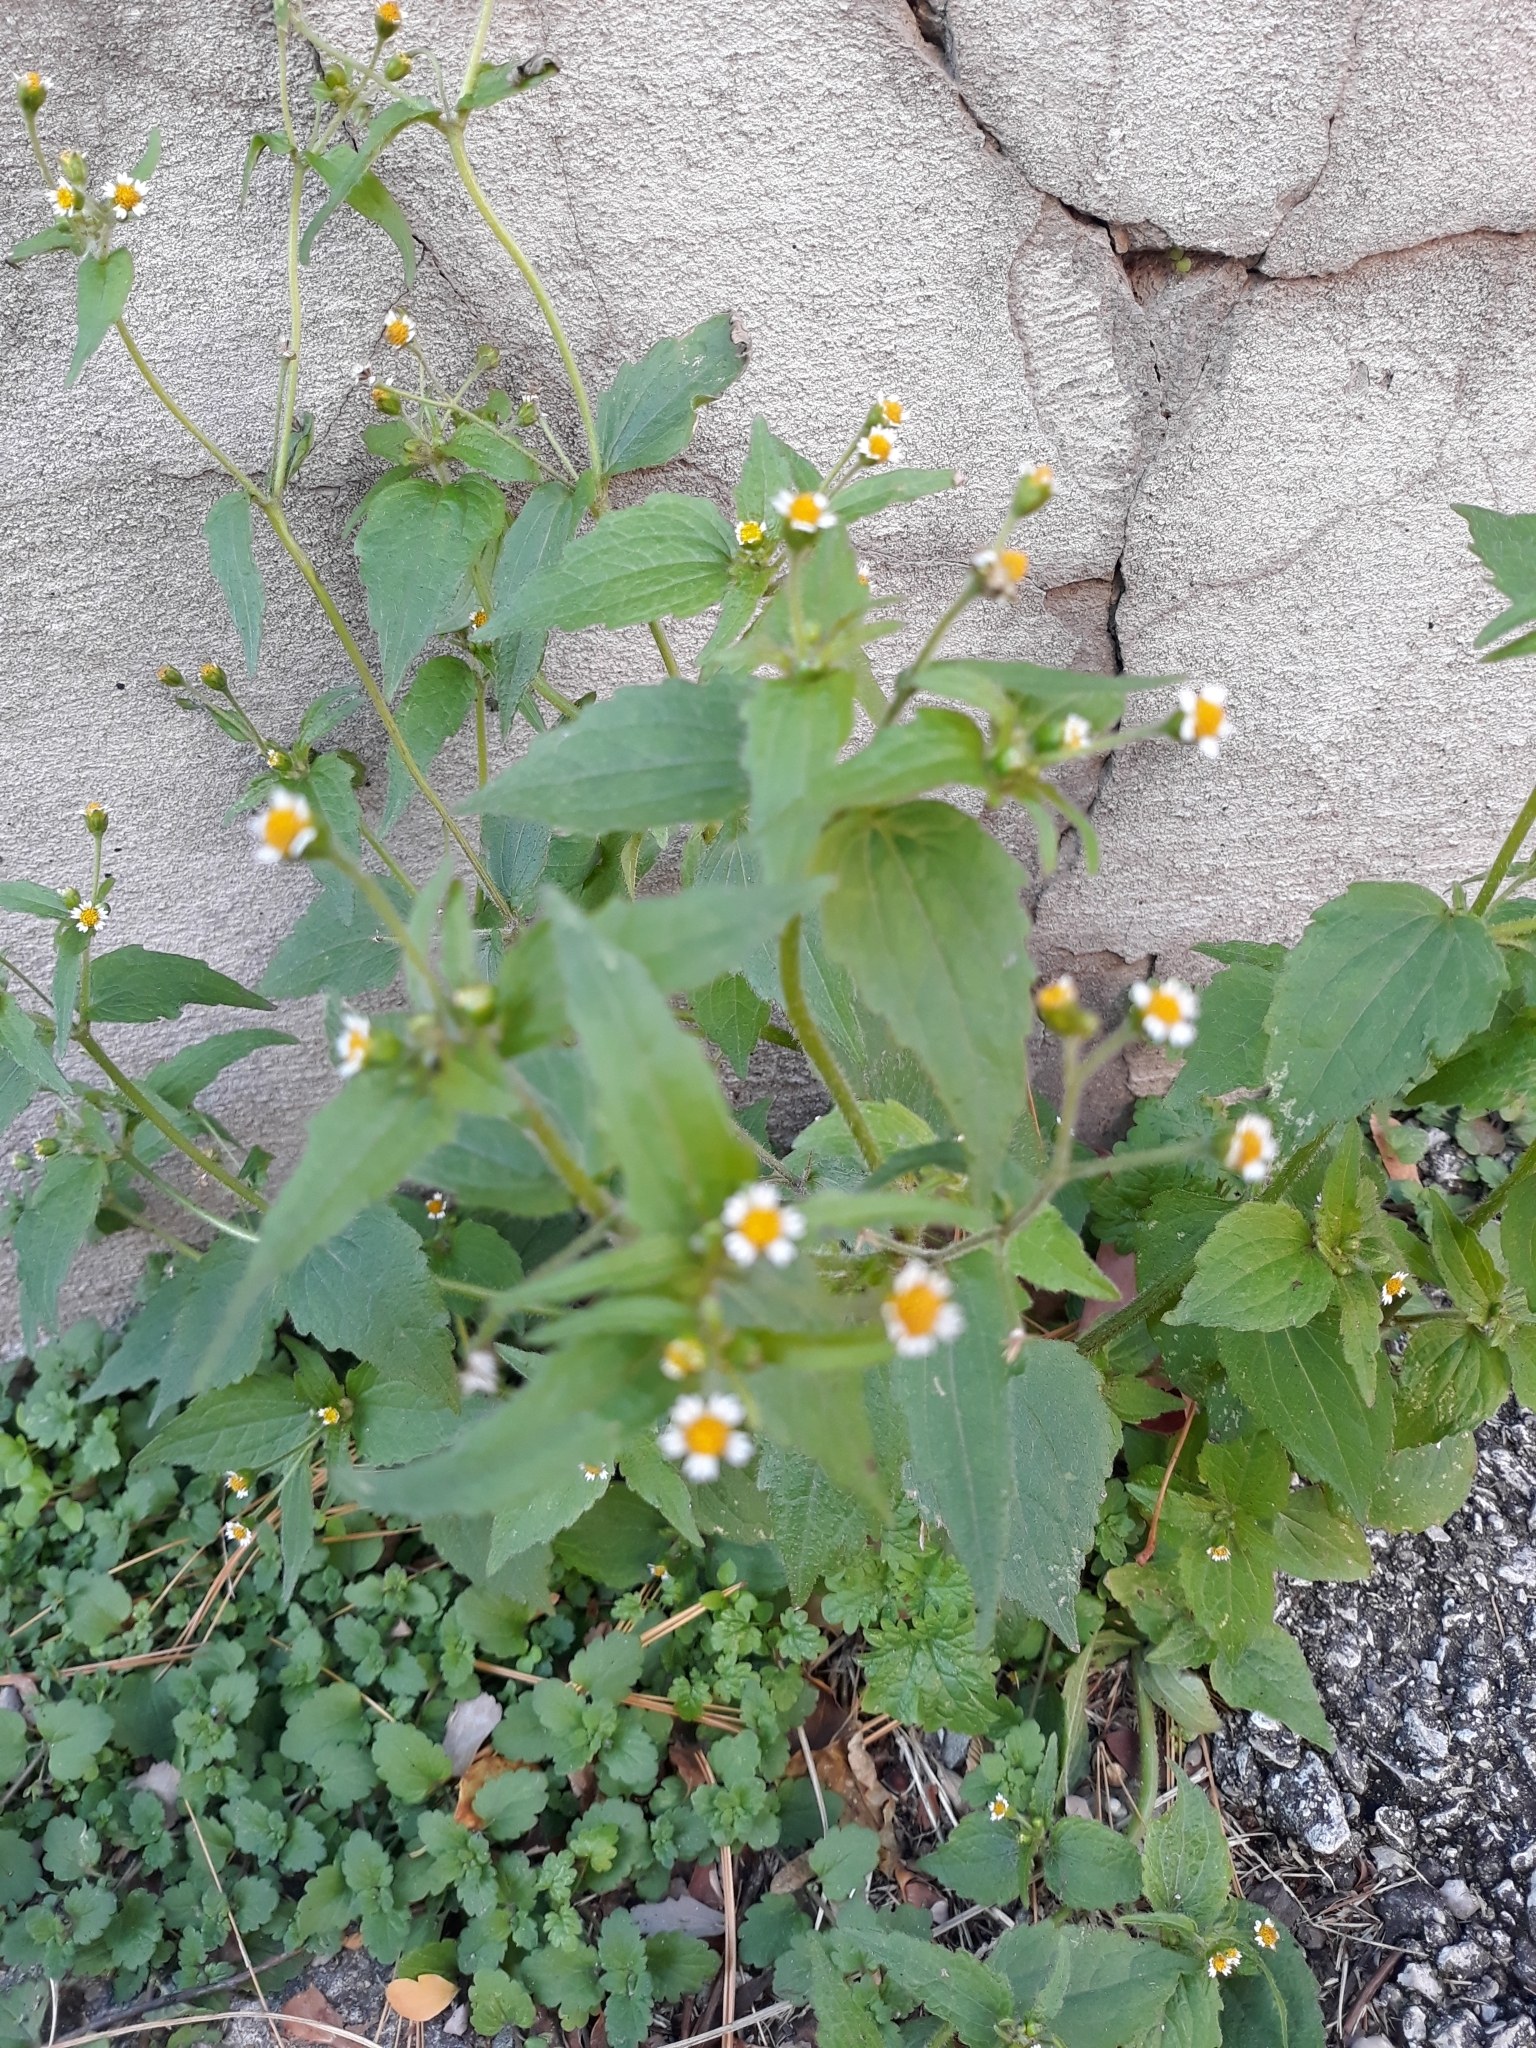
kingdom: Plantae
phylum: Tracheophyta
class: Magnoliopsida
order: Asterales
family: Asteraceae
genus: Galinsoga
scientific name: Galinsoga quadriradiata
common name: Shaggy soldier
